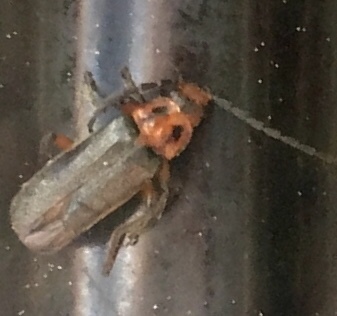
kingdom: Animalia
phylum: Arthropoda
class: Insecta
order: Coleoptera
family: Cantharidae
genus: Atalantycha
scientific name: Atalantycha bilineata
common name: Two-lined leatherwing
